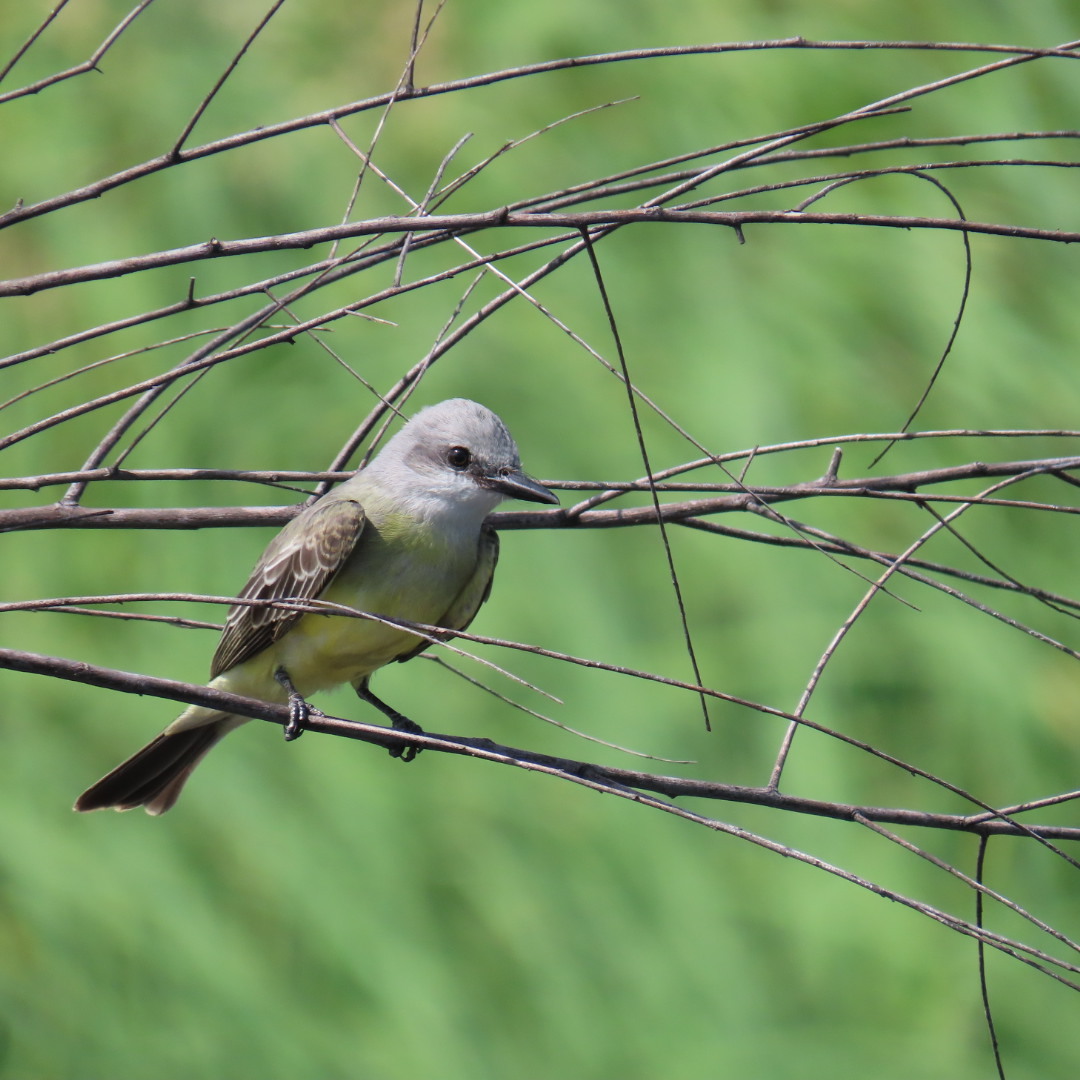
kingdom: Animalia
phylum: Chordata
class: Aves
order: Passeriformes
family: Tyrannidae
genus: Tyrannus
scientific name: Tyrannus
